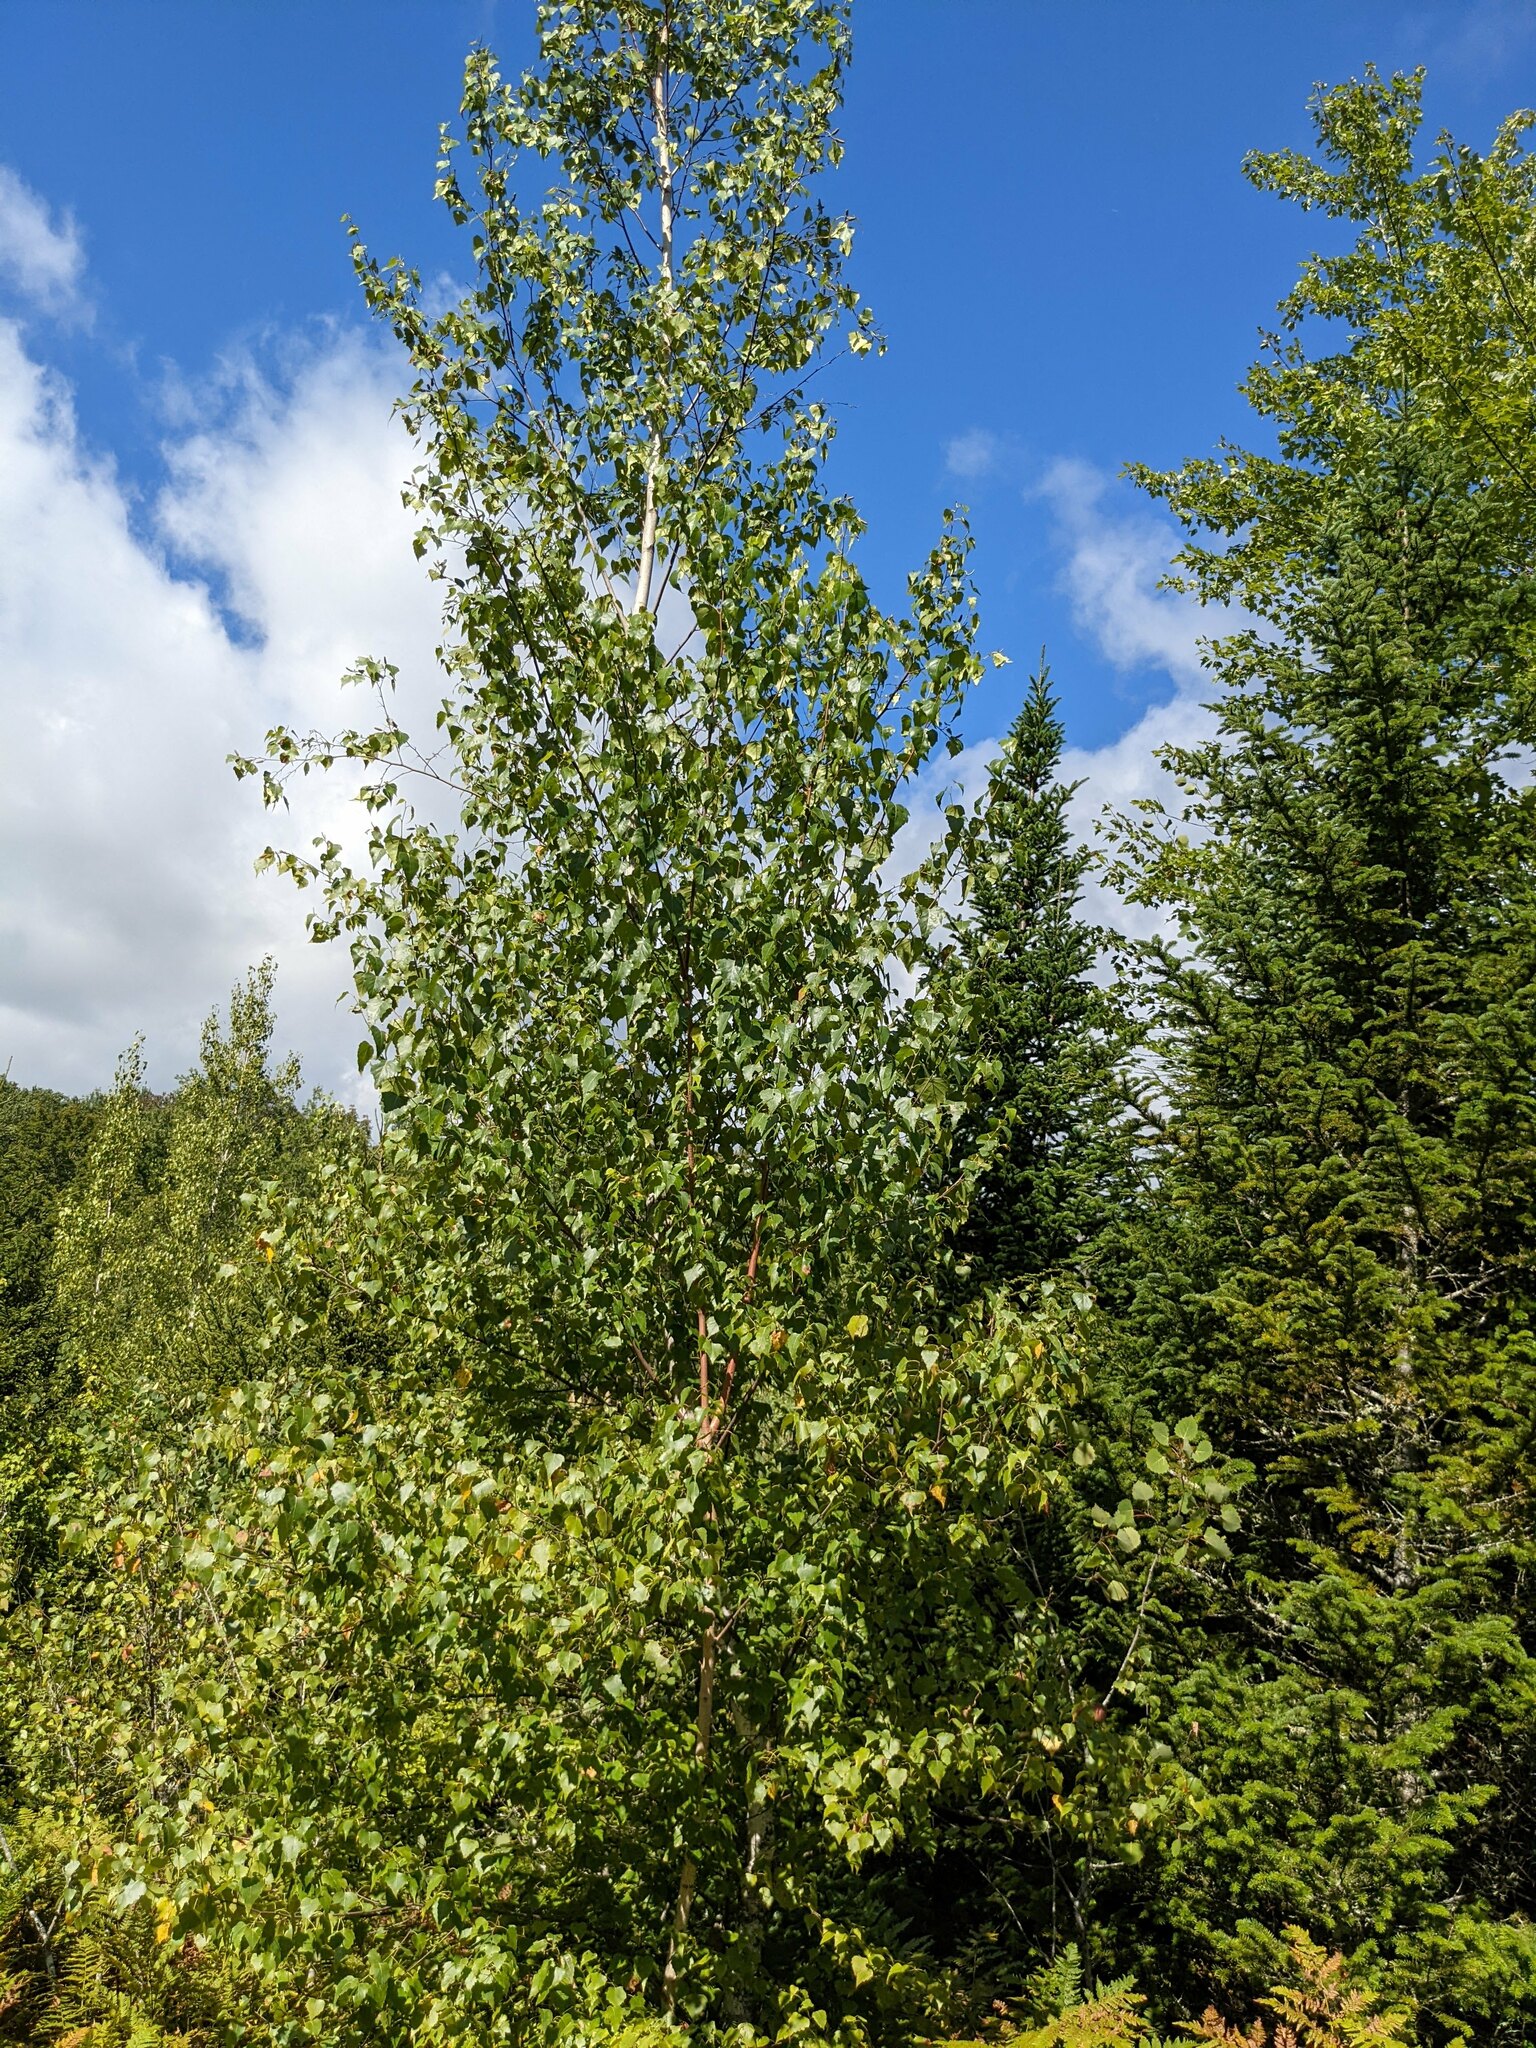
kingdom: Plantae
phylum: Tracheophyta
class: Magnoliopsida
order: Fagales
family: Betulaceae
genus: Betula
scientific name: Betula populifolia
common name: Fire birch
